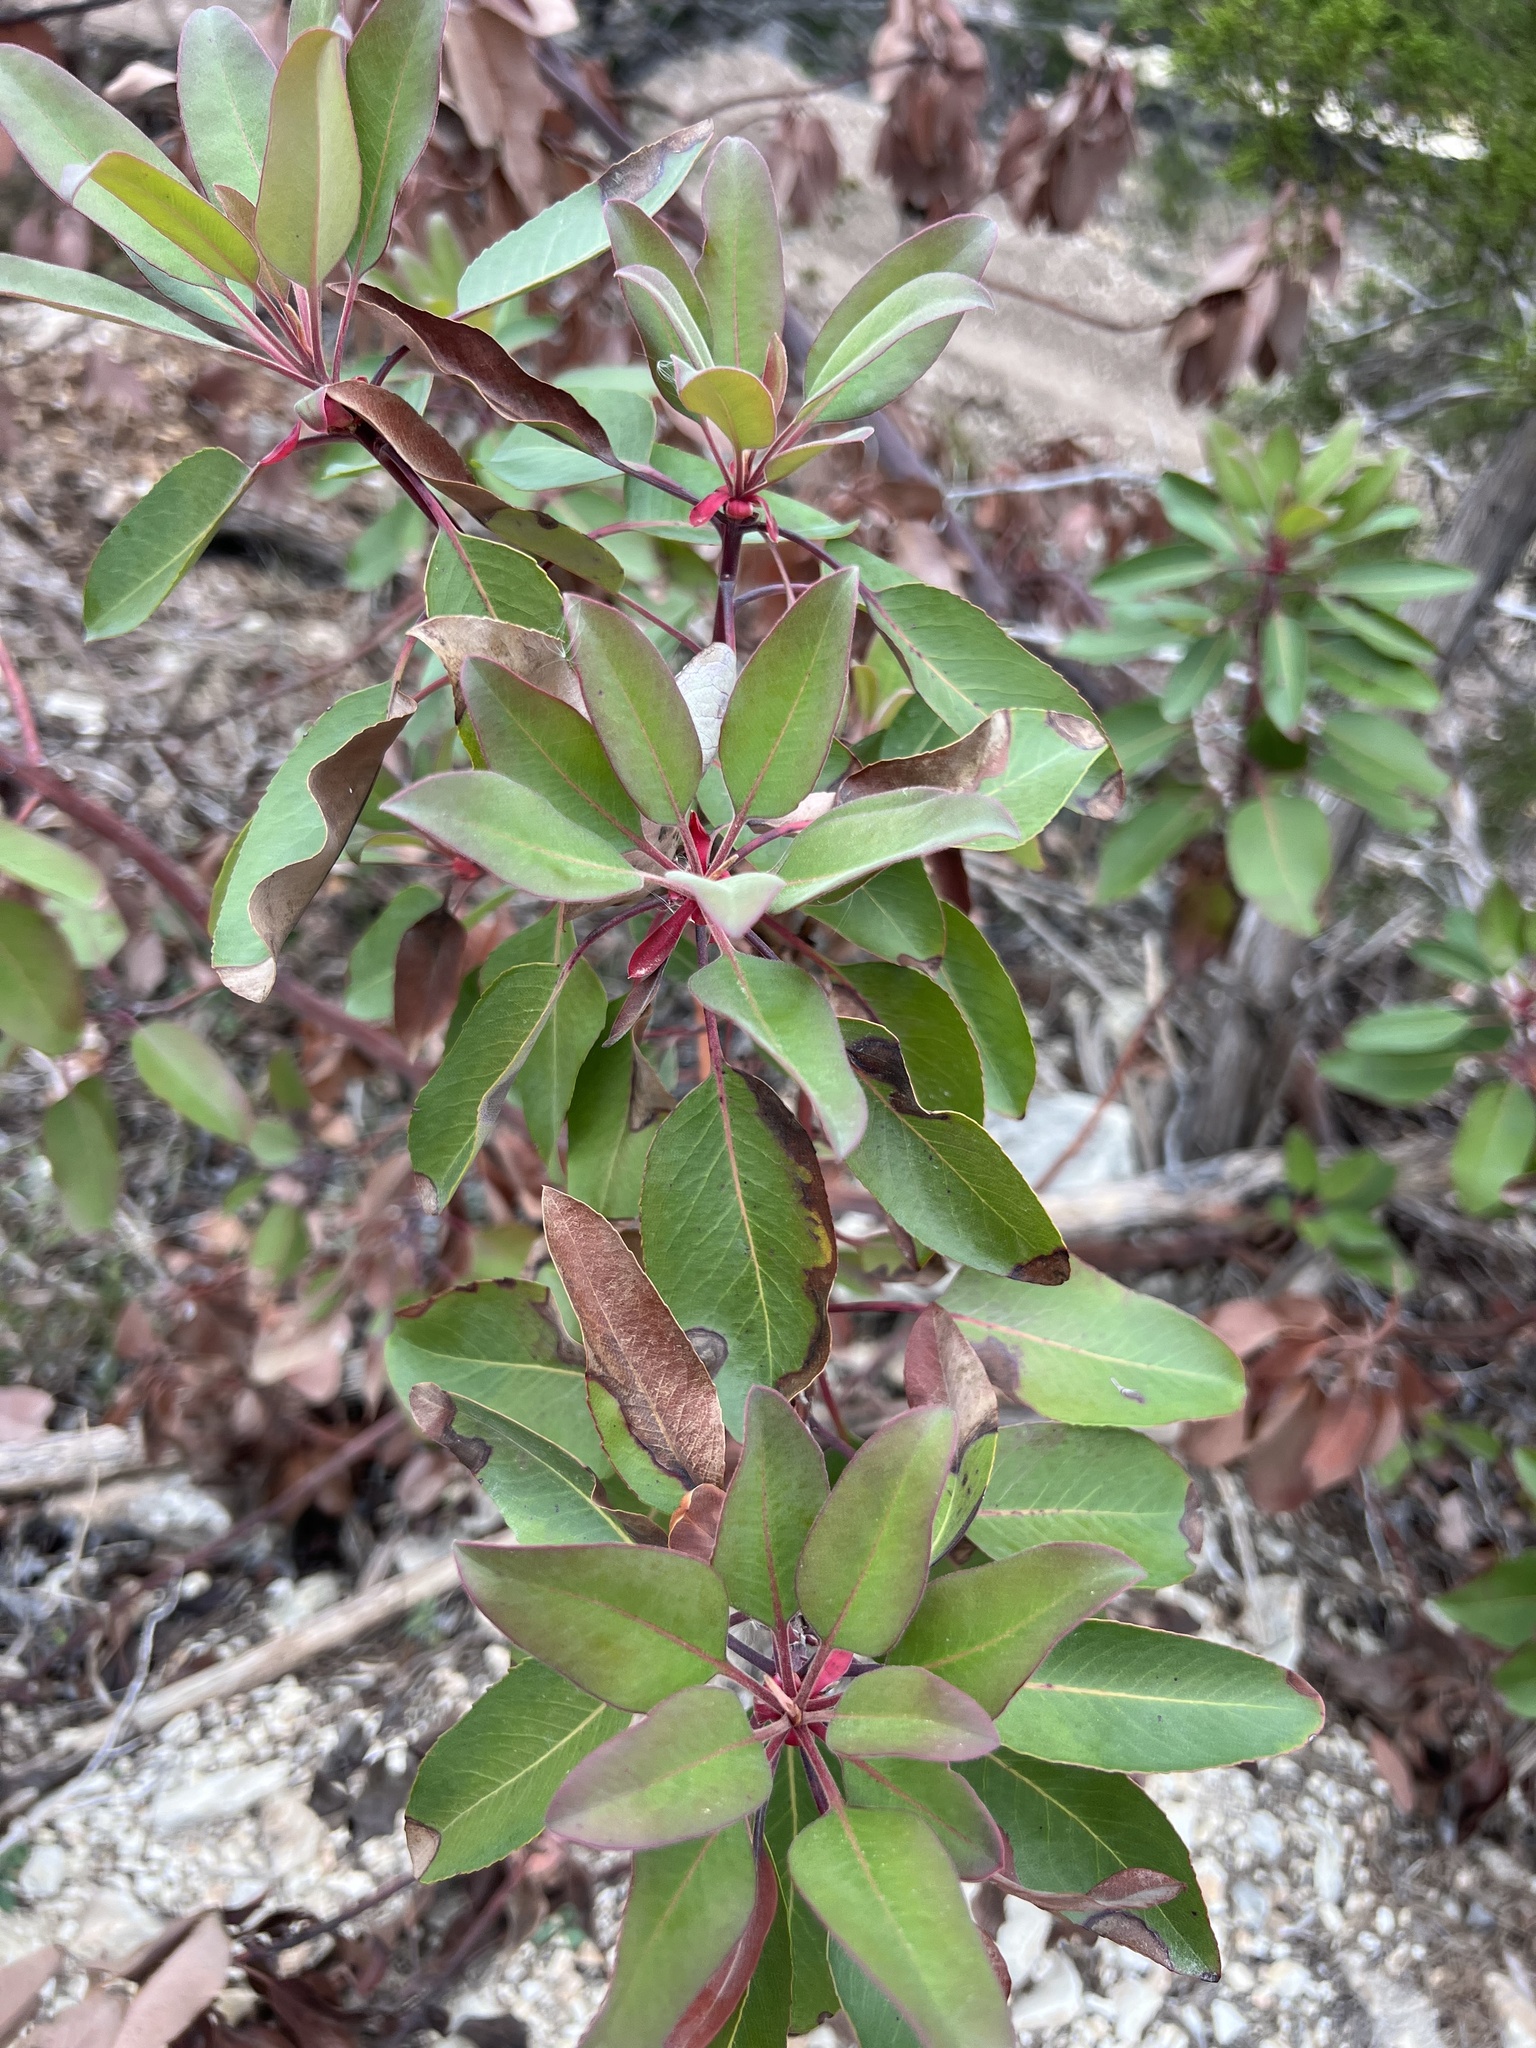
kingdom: Plantae
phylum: Tracheophyta
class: Magnoliopsida
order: Ericales
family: Ericaceae
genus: Arbutus
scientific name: Arbutus xalapensis
